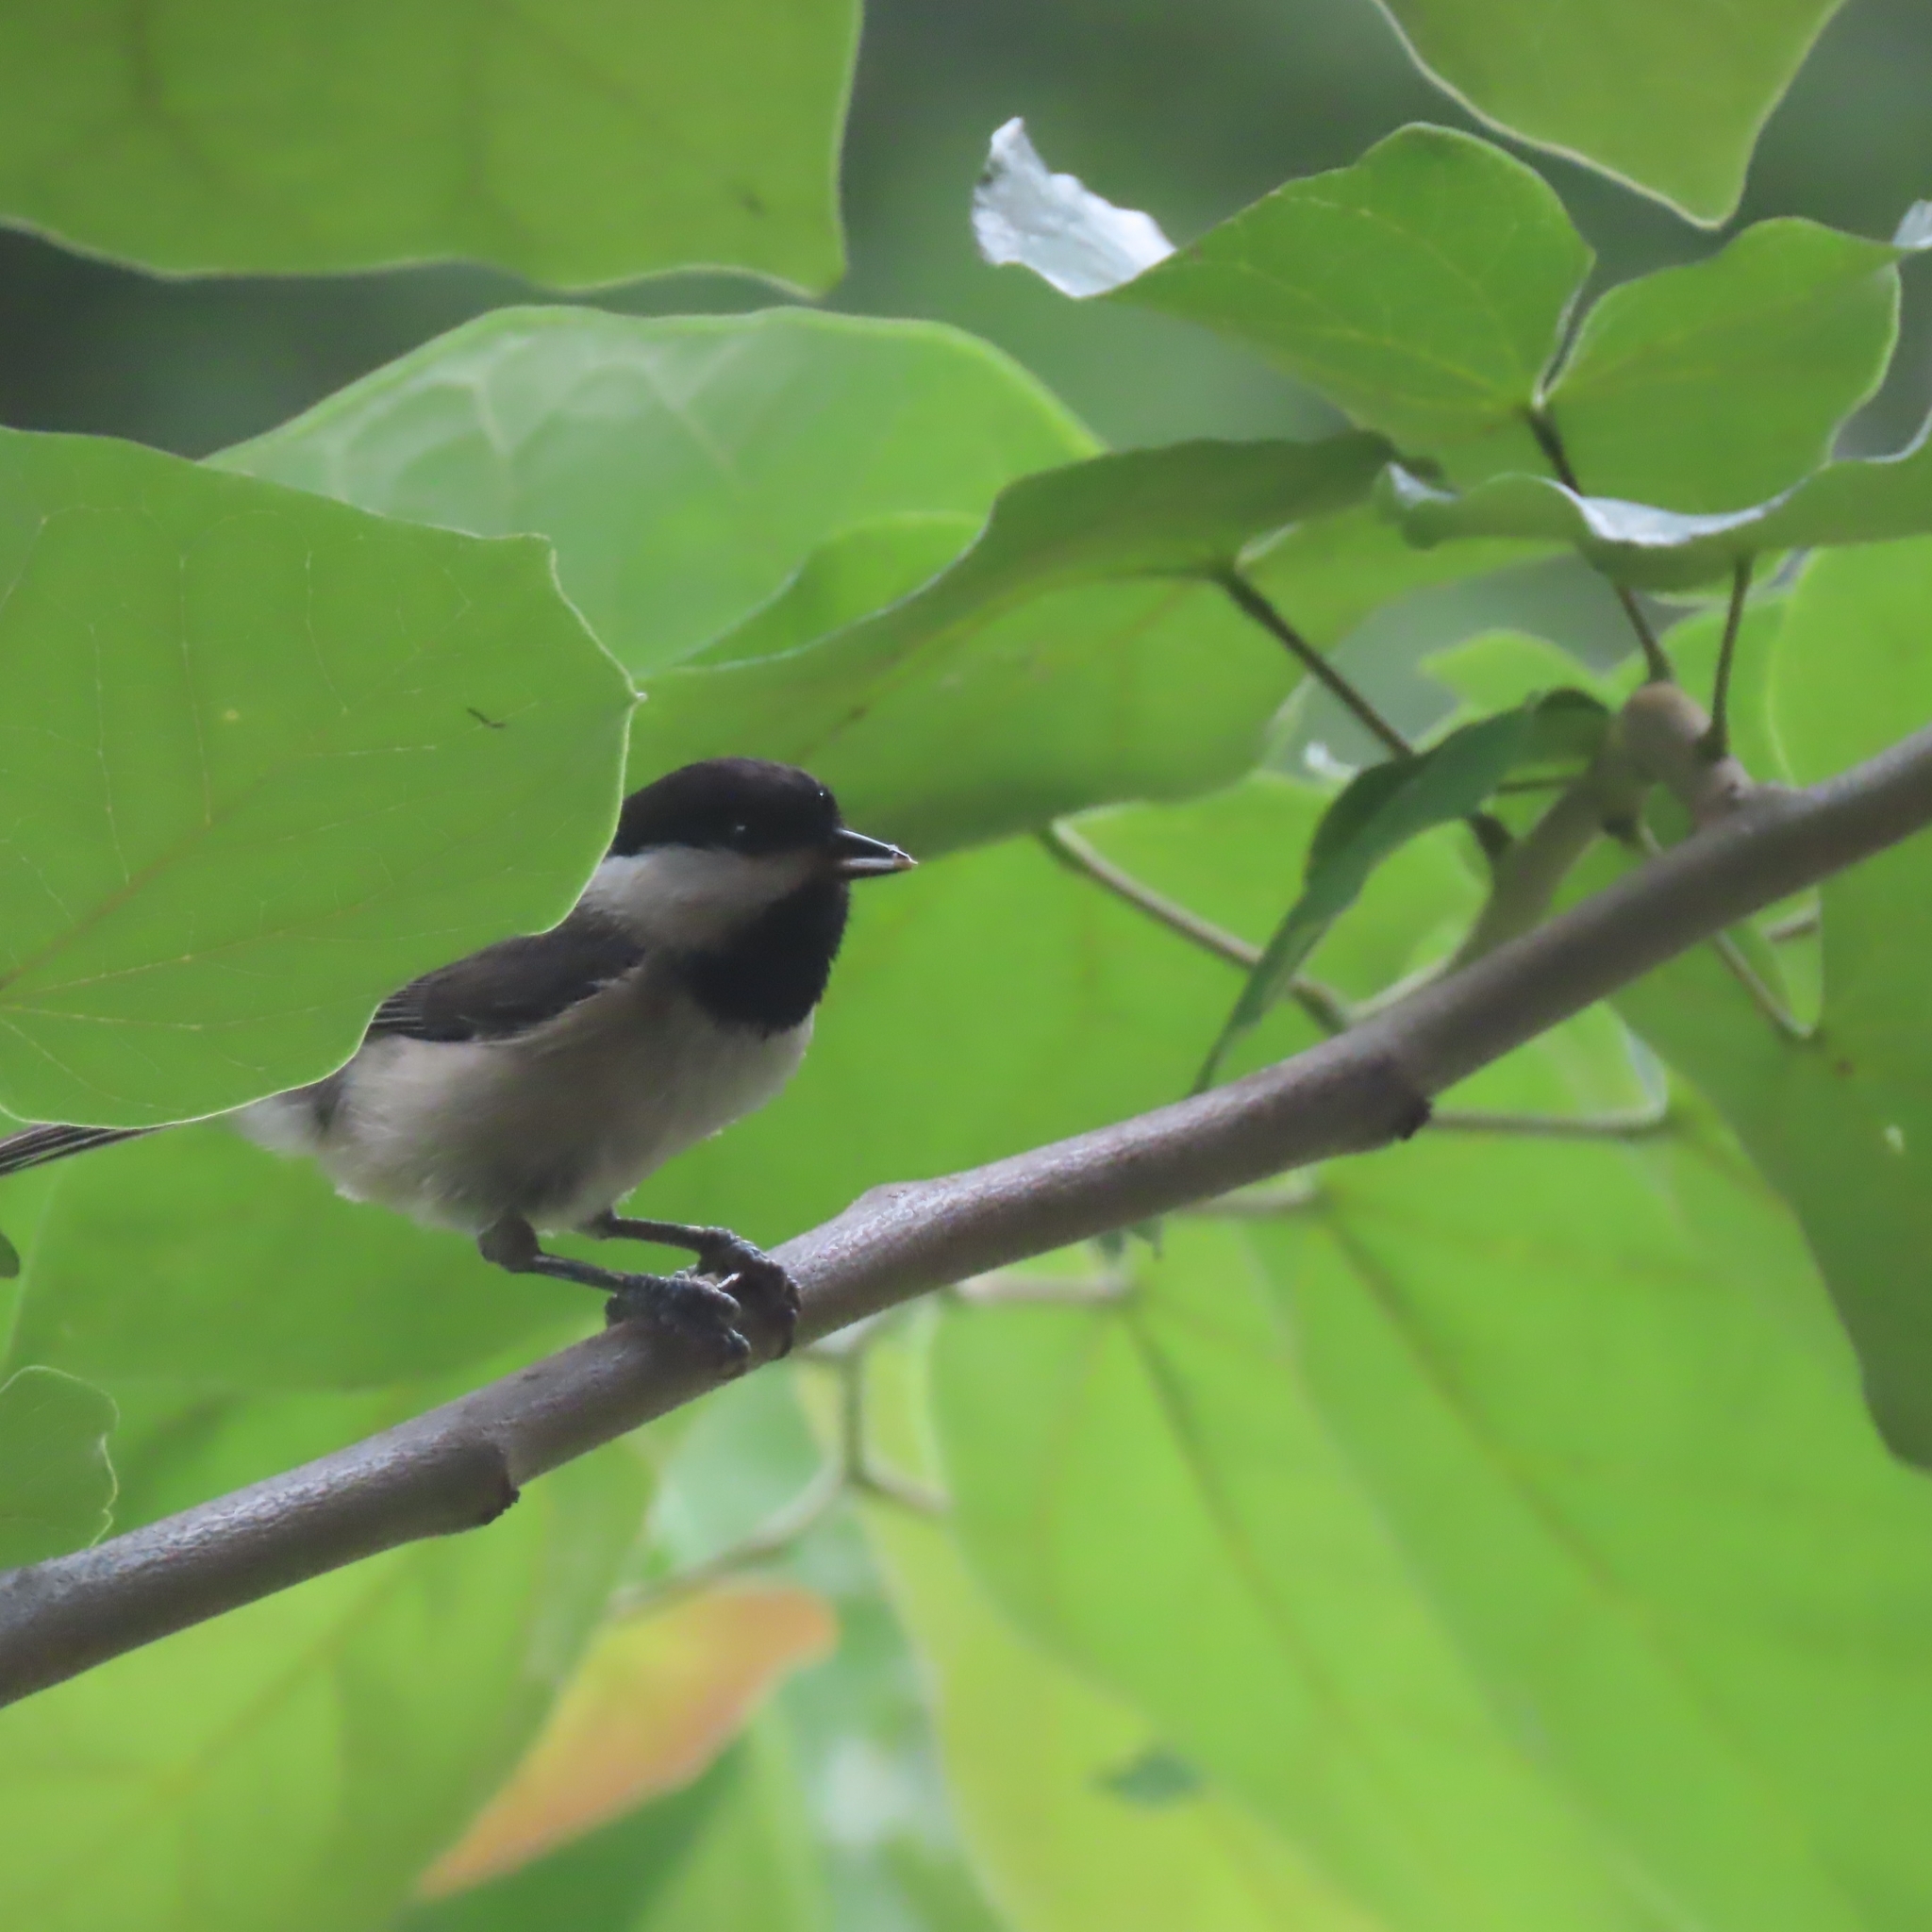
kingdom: Animalia
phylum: Chordata
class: Aves
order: Passeriformes
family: Paridae
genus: Poecile
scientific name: Poecile carolinensis
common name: Carolina chickadee
